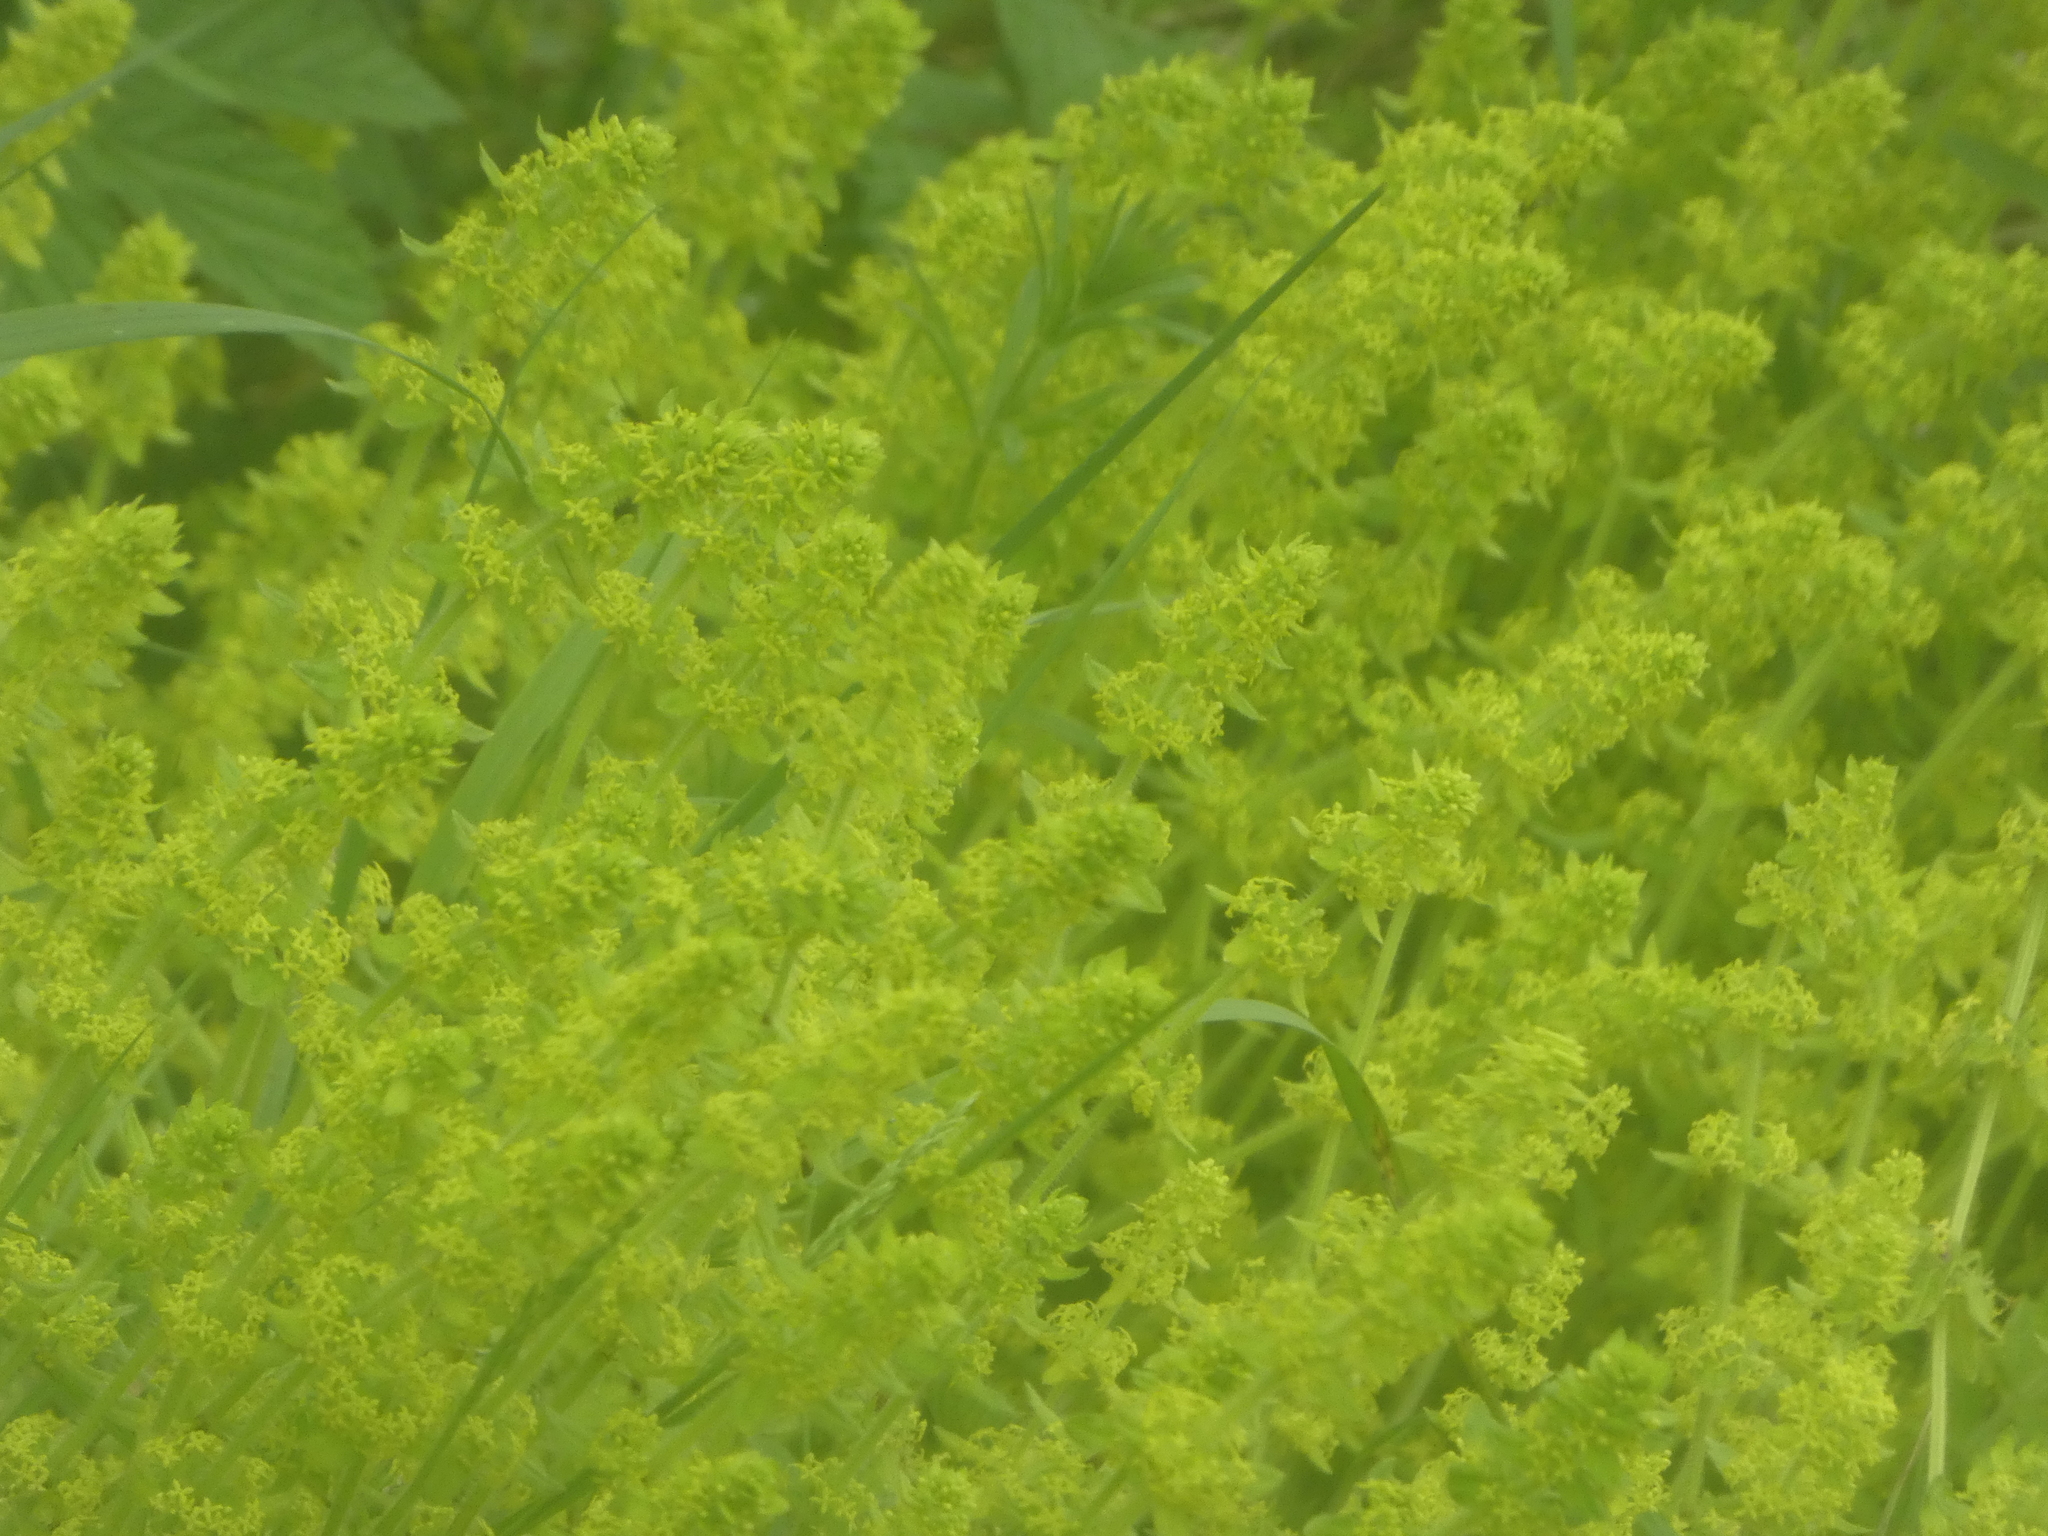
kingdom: Plantae
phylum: Tracheophyta
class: Magnoliopsida
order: Gentianales
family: Rubiaceae
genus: Cruciata
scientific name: Cruciata laevipes
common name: Crosswort
